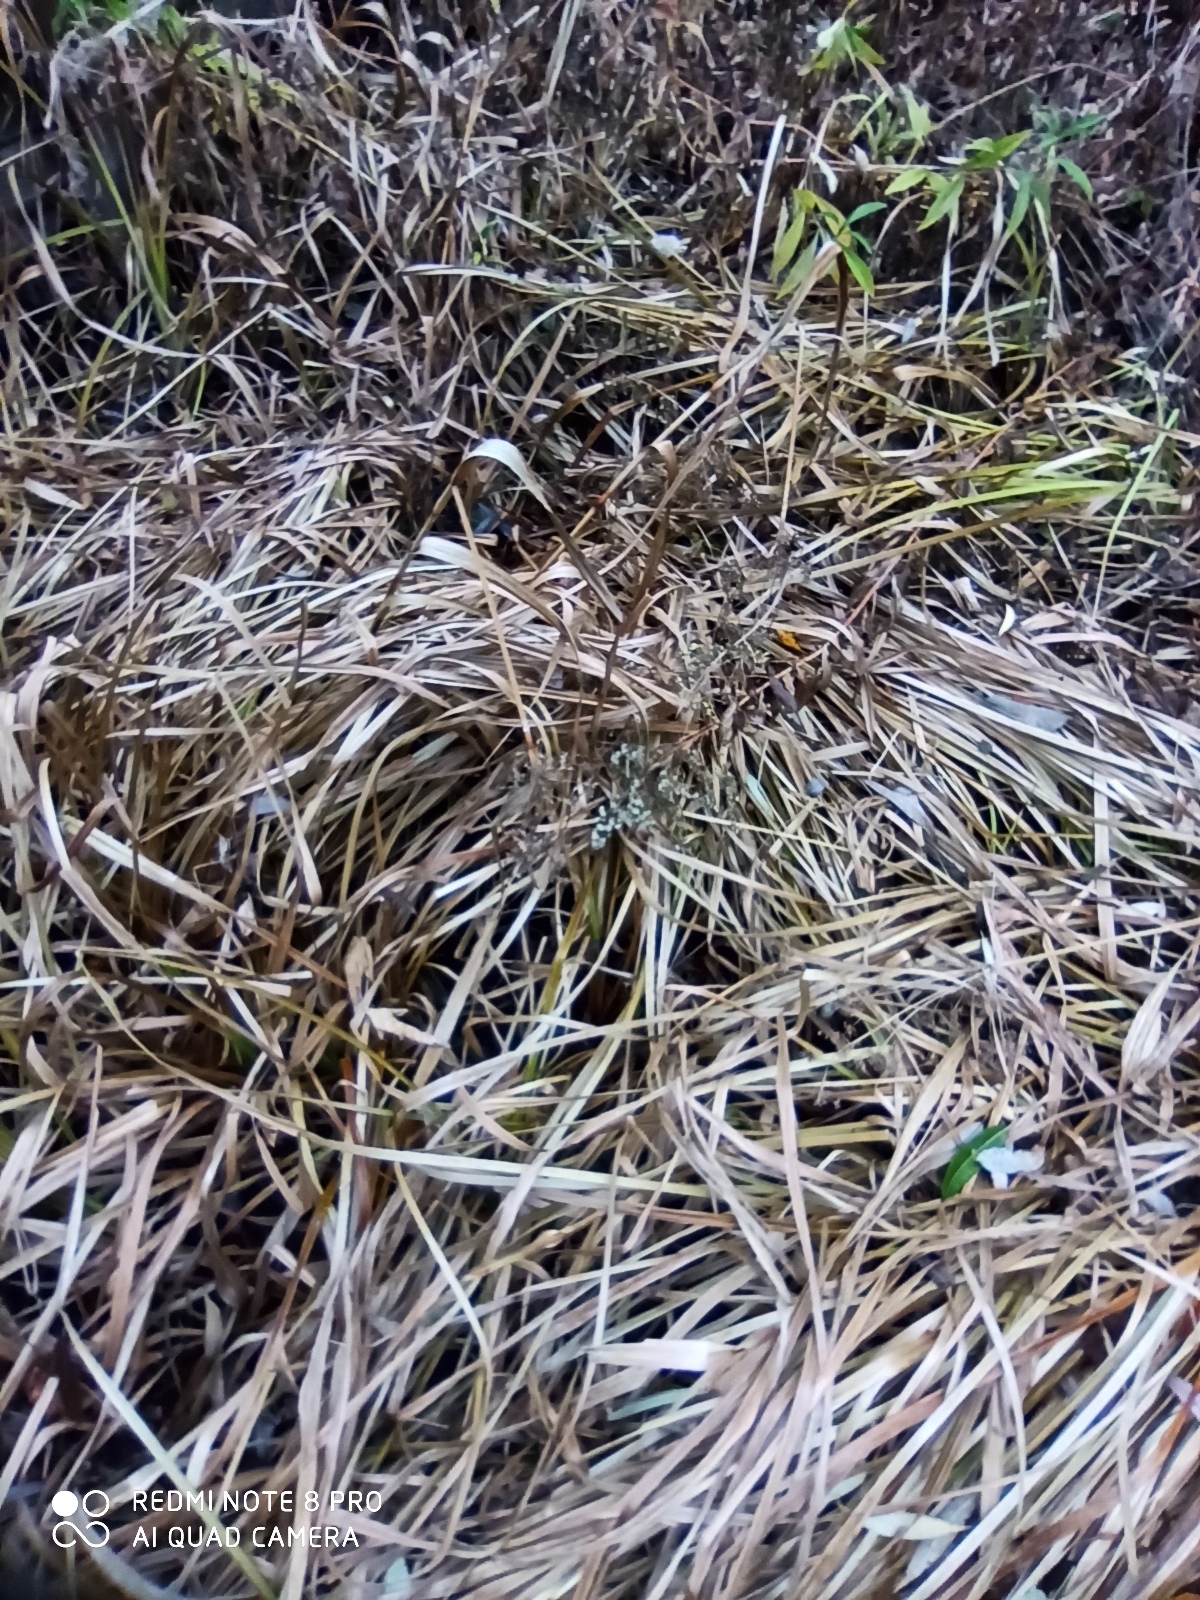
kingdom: Plantae
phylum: Tracheophyta
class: Liliopsida
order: Poales
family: Cyperaceae
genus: Scirpus
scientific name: Scirpus sylvaticus
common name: Wood club-rush
